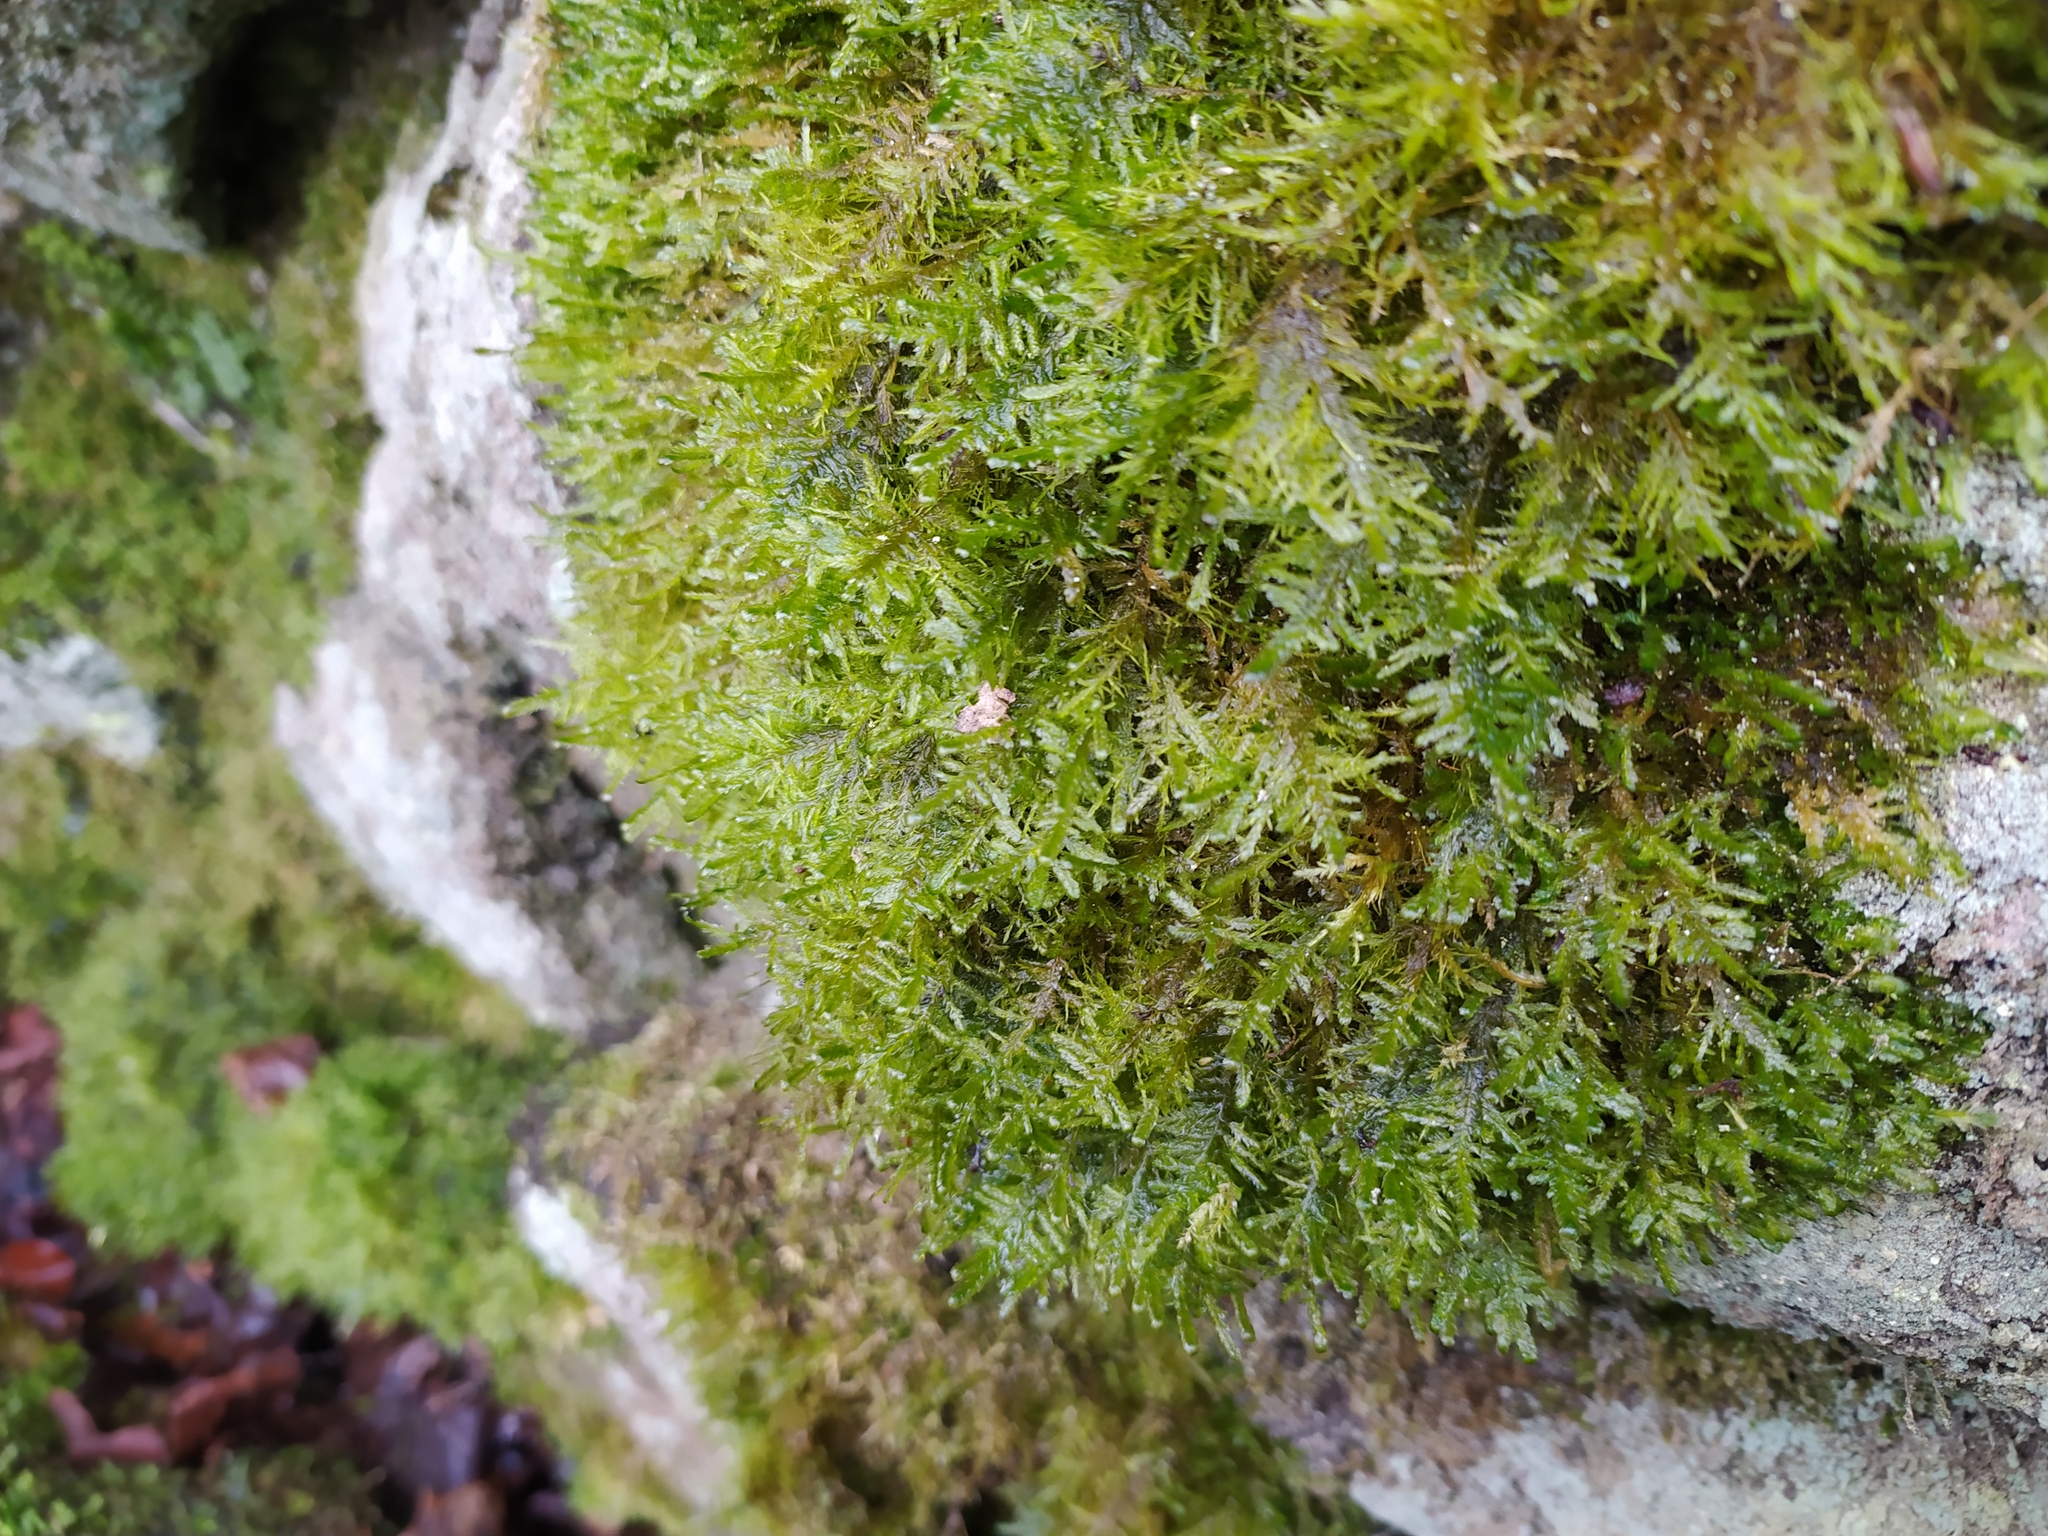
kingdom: Plantae
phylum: Bryophyta
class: Bryopsida
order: Hypnales
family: Neckeraceae
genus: Alleniella
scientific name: Alleniella complanata
